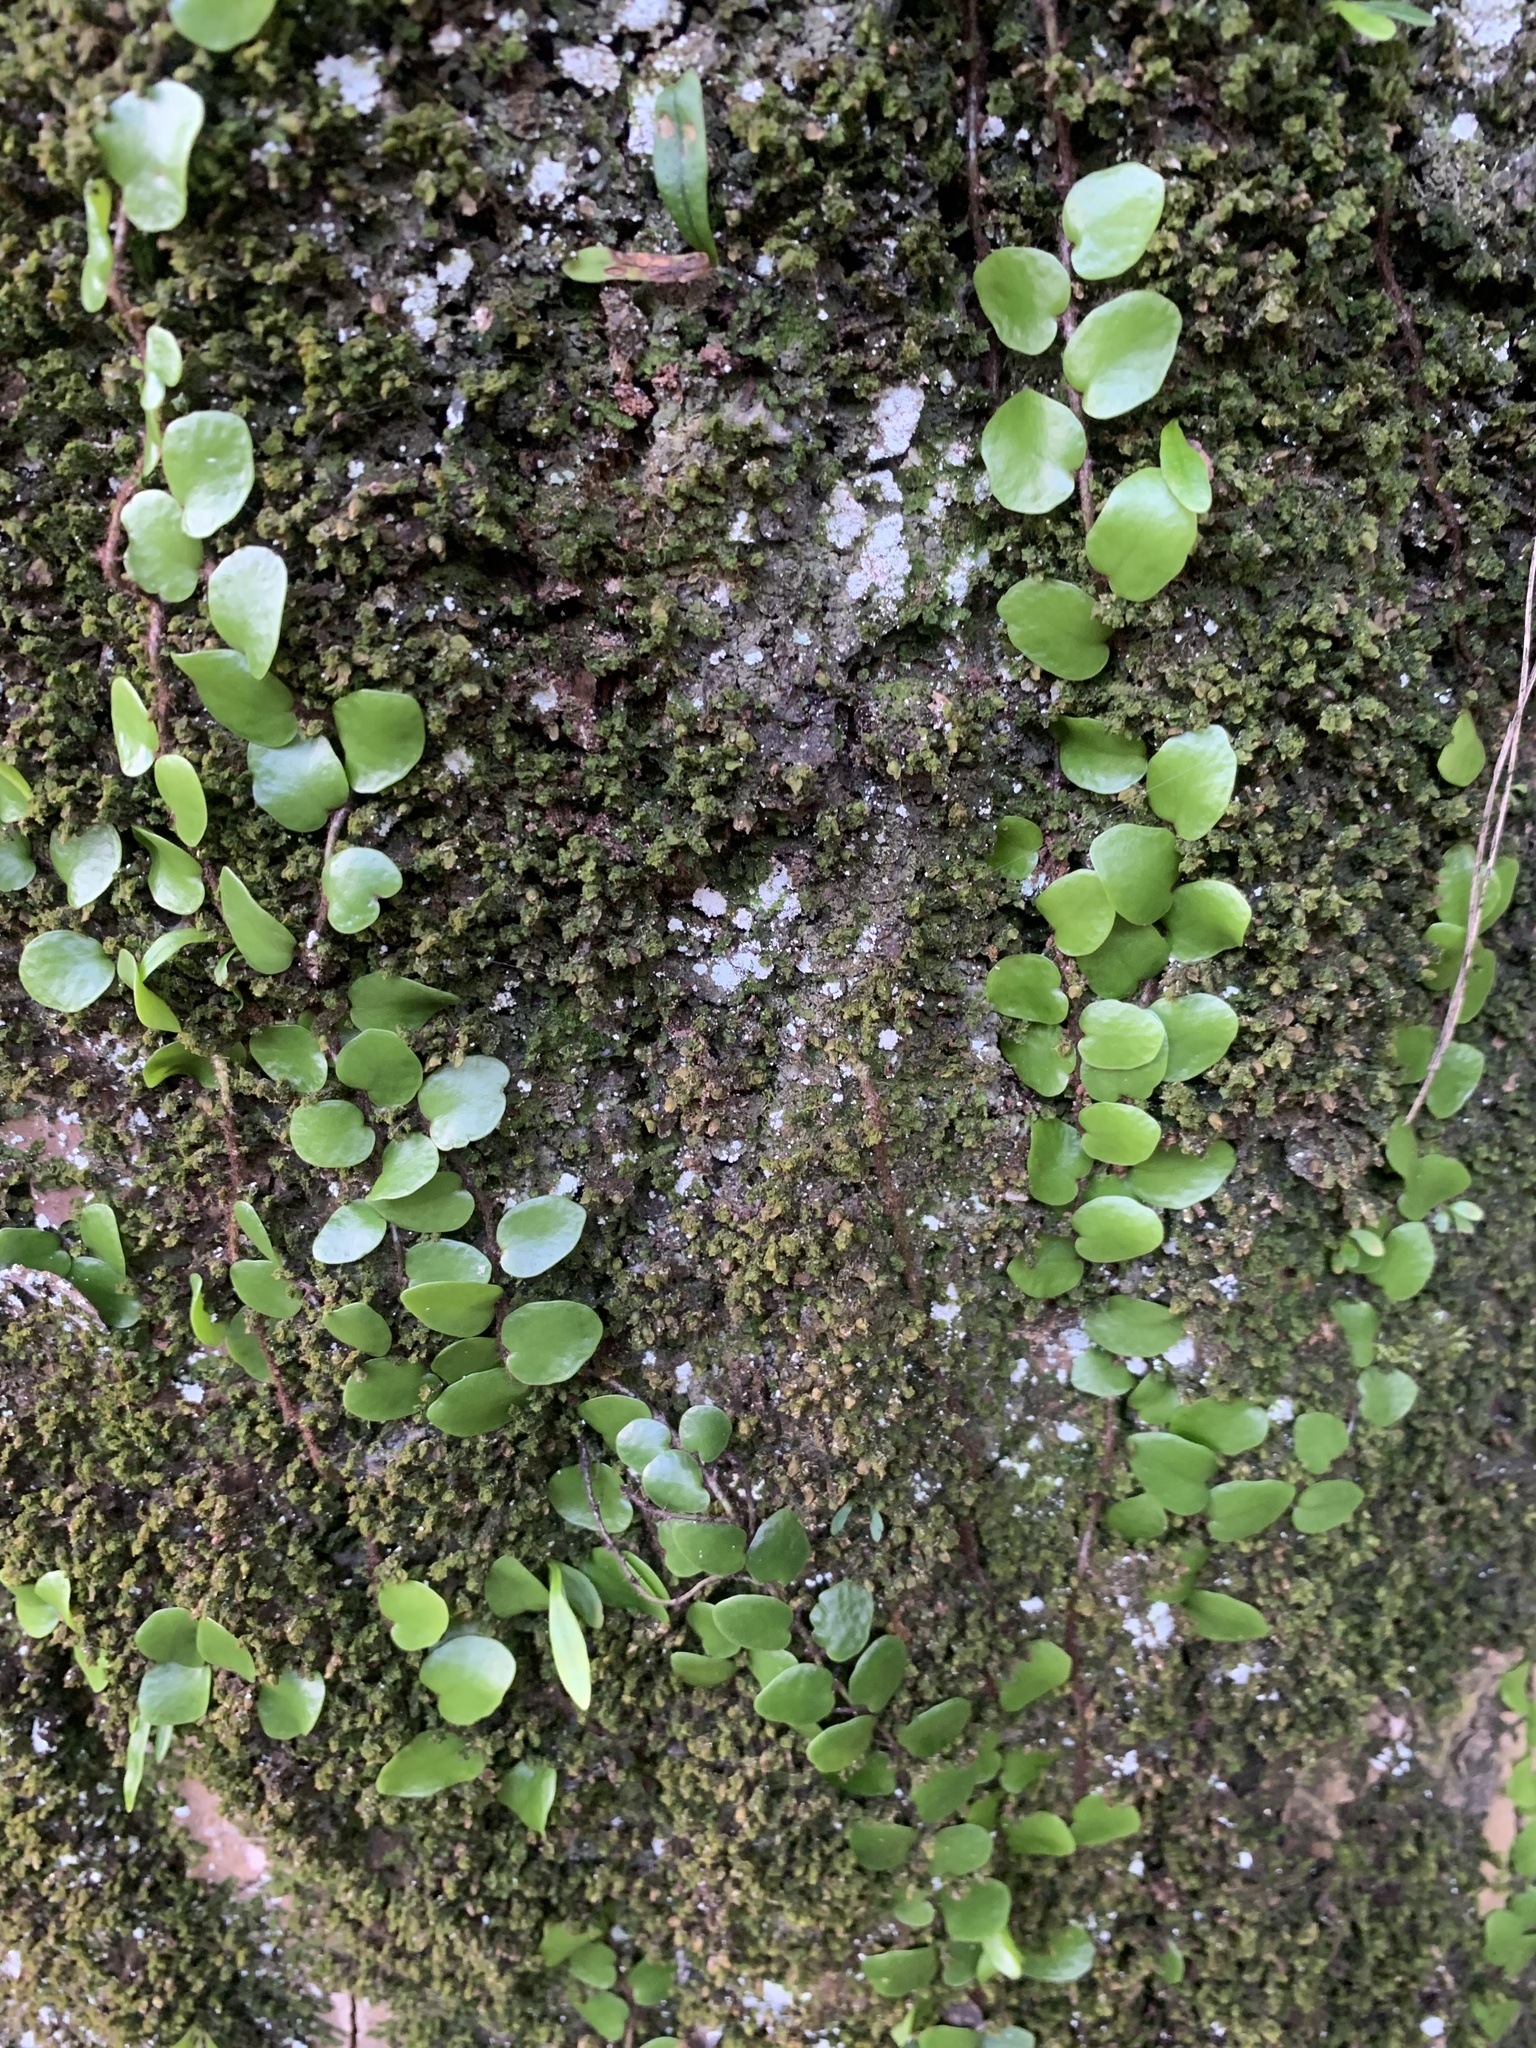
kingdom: Plantae
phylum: Tracheophyta
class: Polypodiopsida
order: Polypodiales
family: Polypodiaceae
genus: Lepisorus
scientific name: Lepisorus microphyllus
